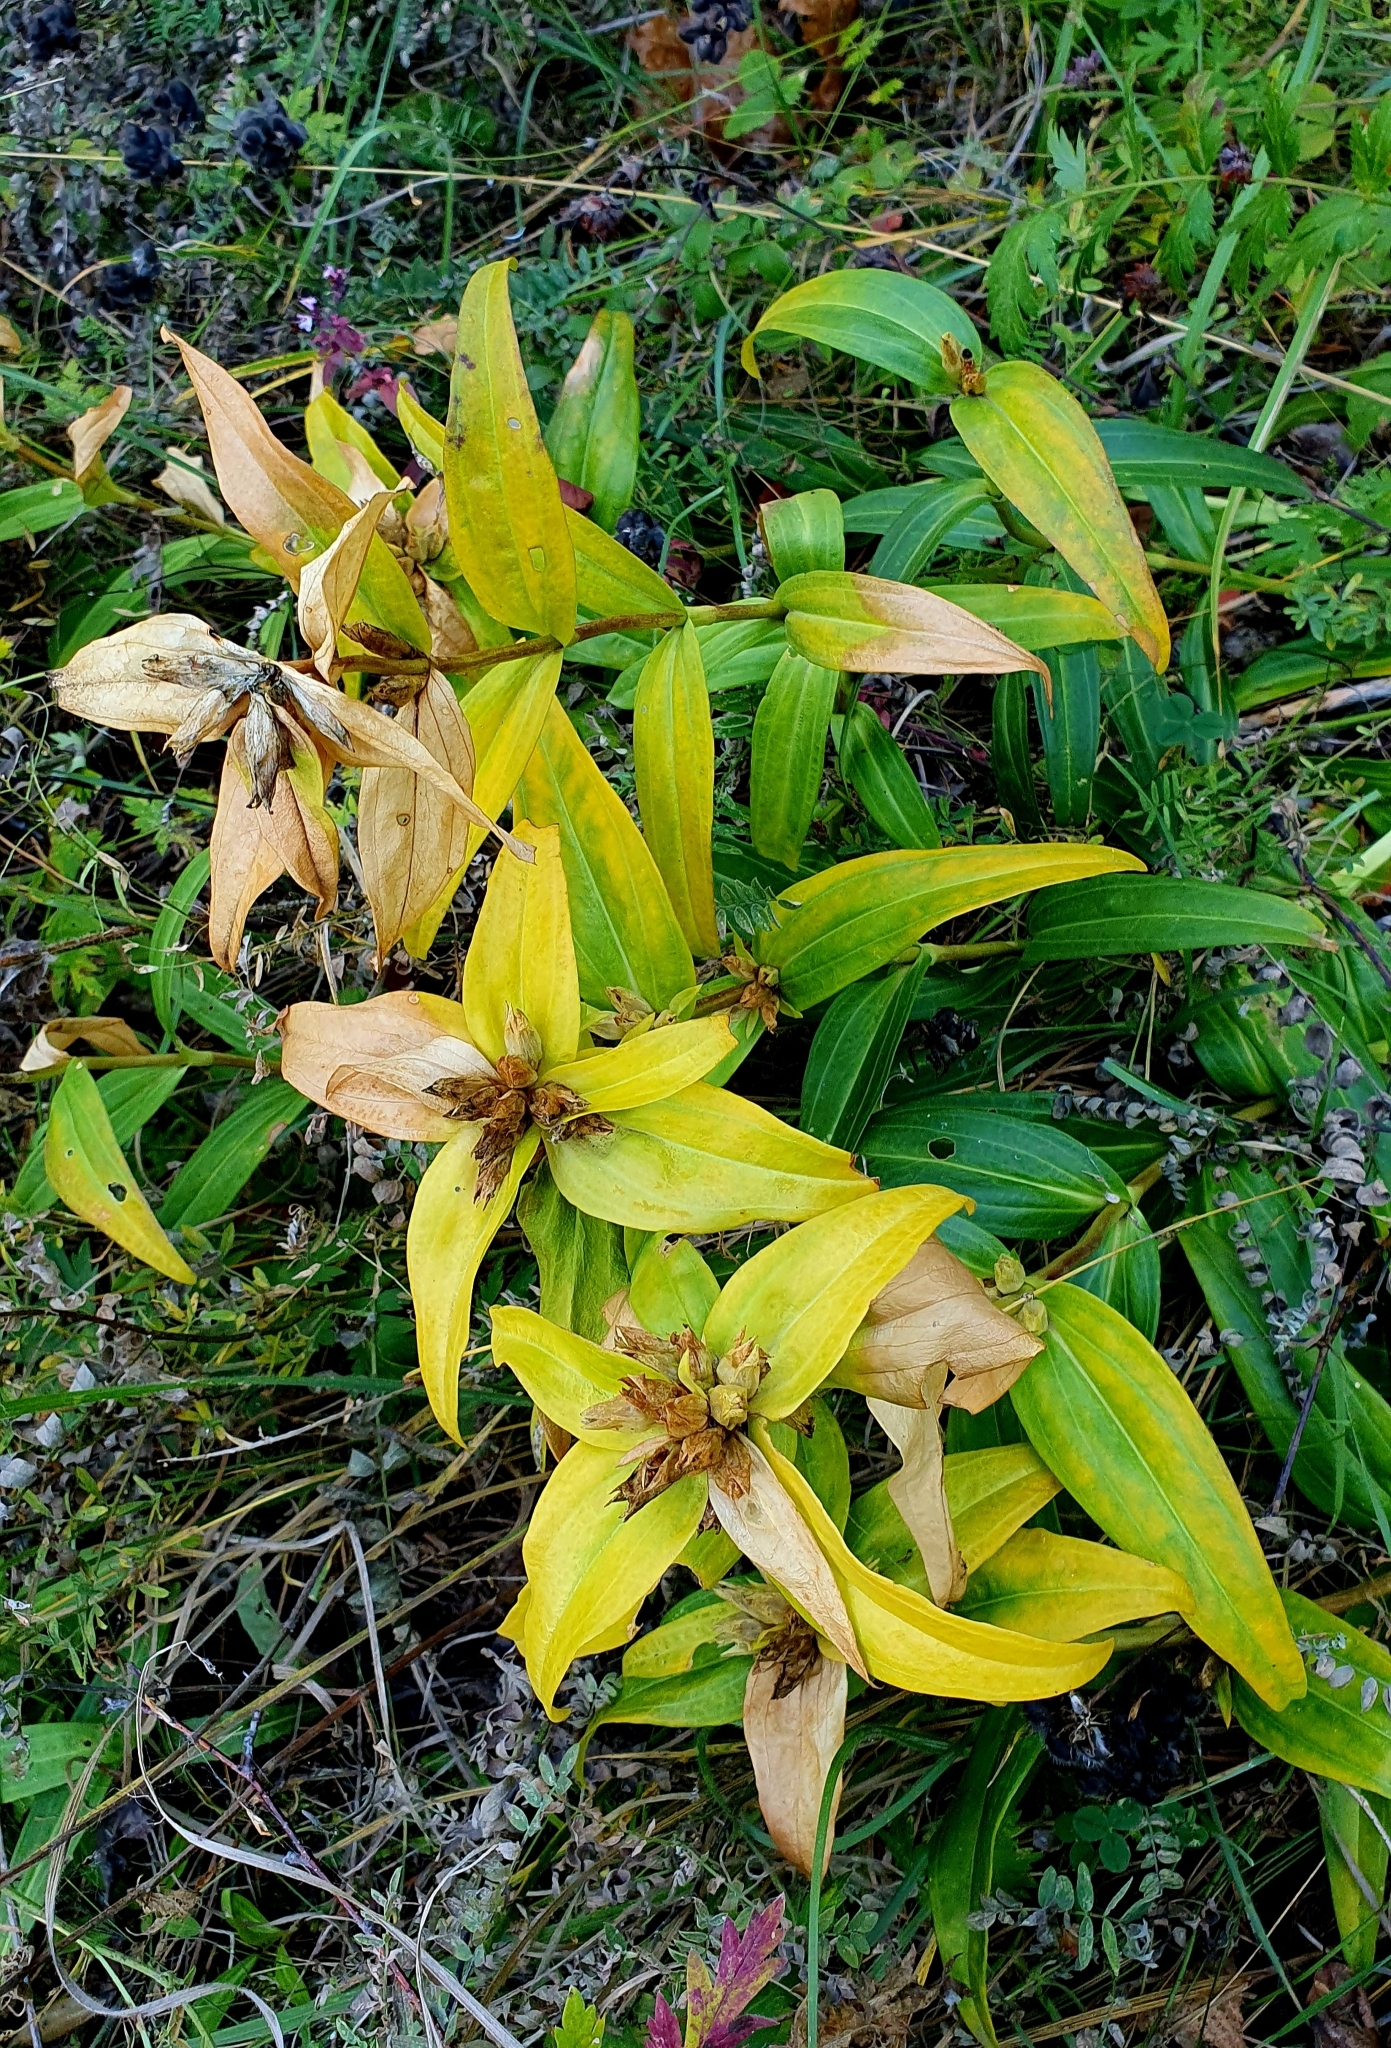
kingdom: Plantae
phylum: Tracheophyta
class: Magnoliopsida
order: Gentianales
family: Gentianaceae
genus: Gentiana
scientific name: Gentiana cruciata
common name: Cross gentian
